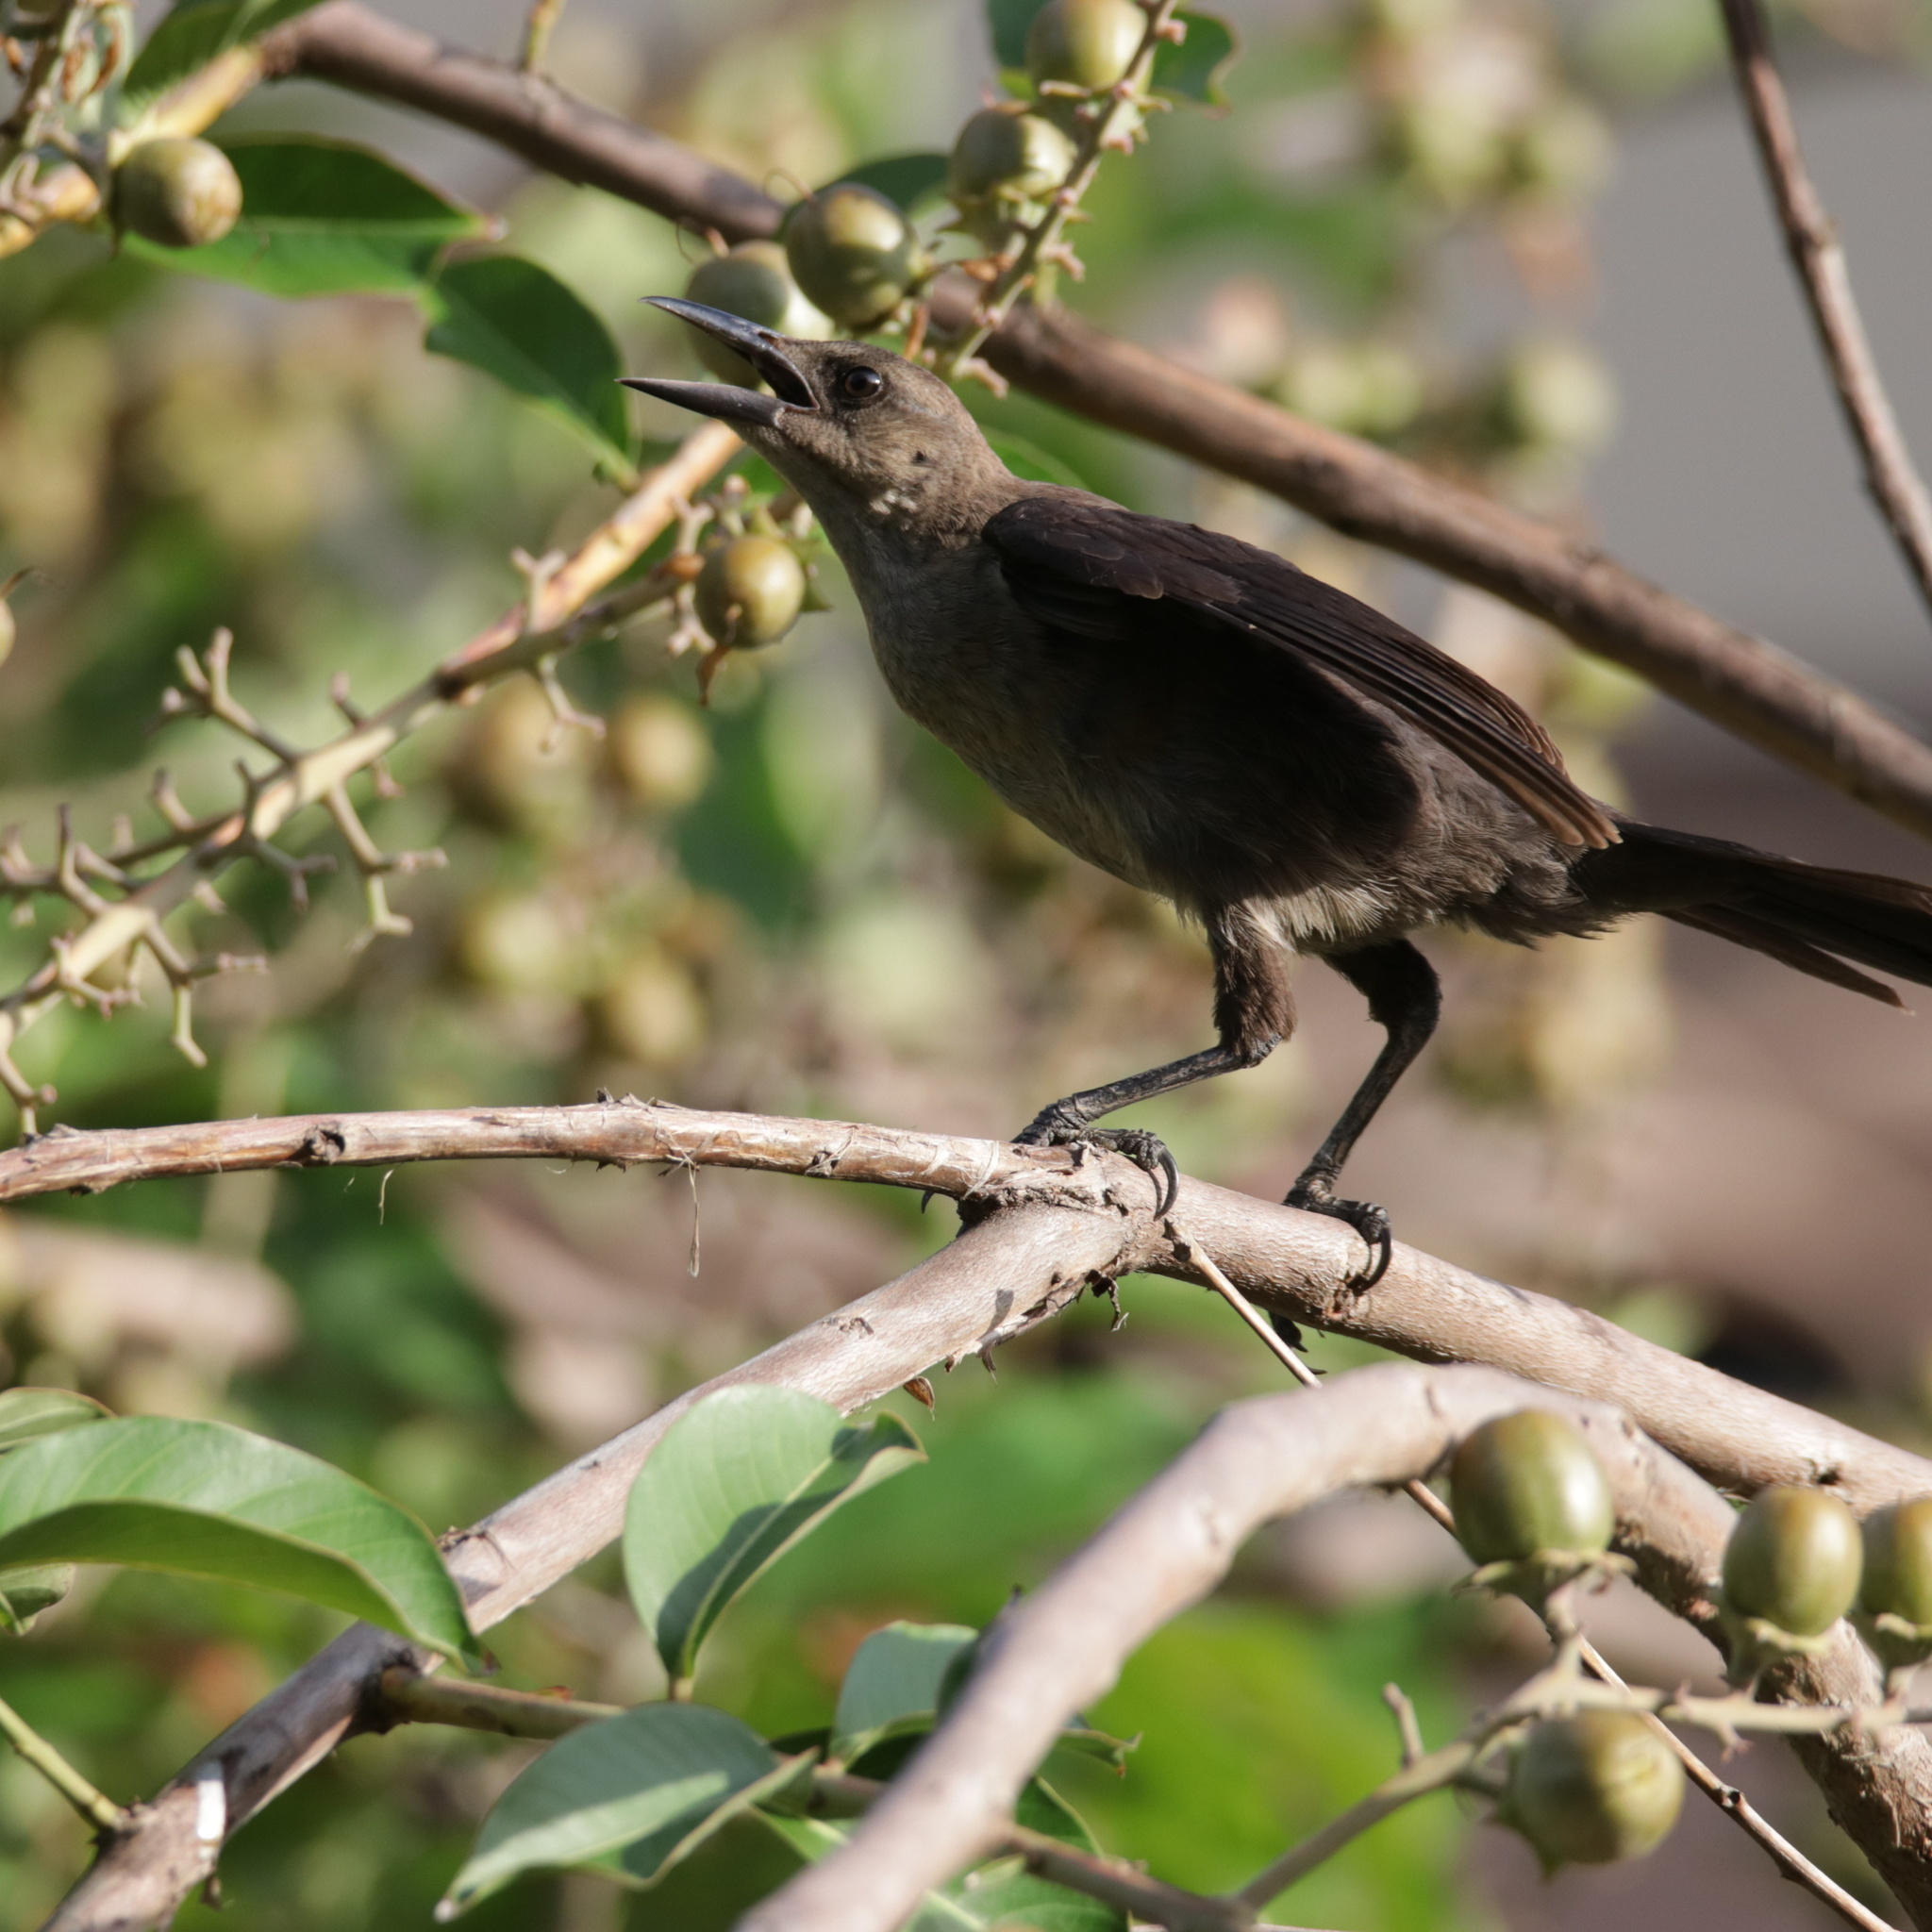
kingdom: Animalia
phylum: Chordata
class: Aves
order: Passeriformes
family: Icteridae
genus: Quiscalus
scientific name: Quiscalus mexicanus
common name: Great-tailed grackle
